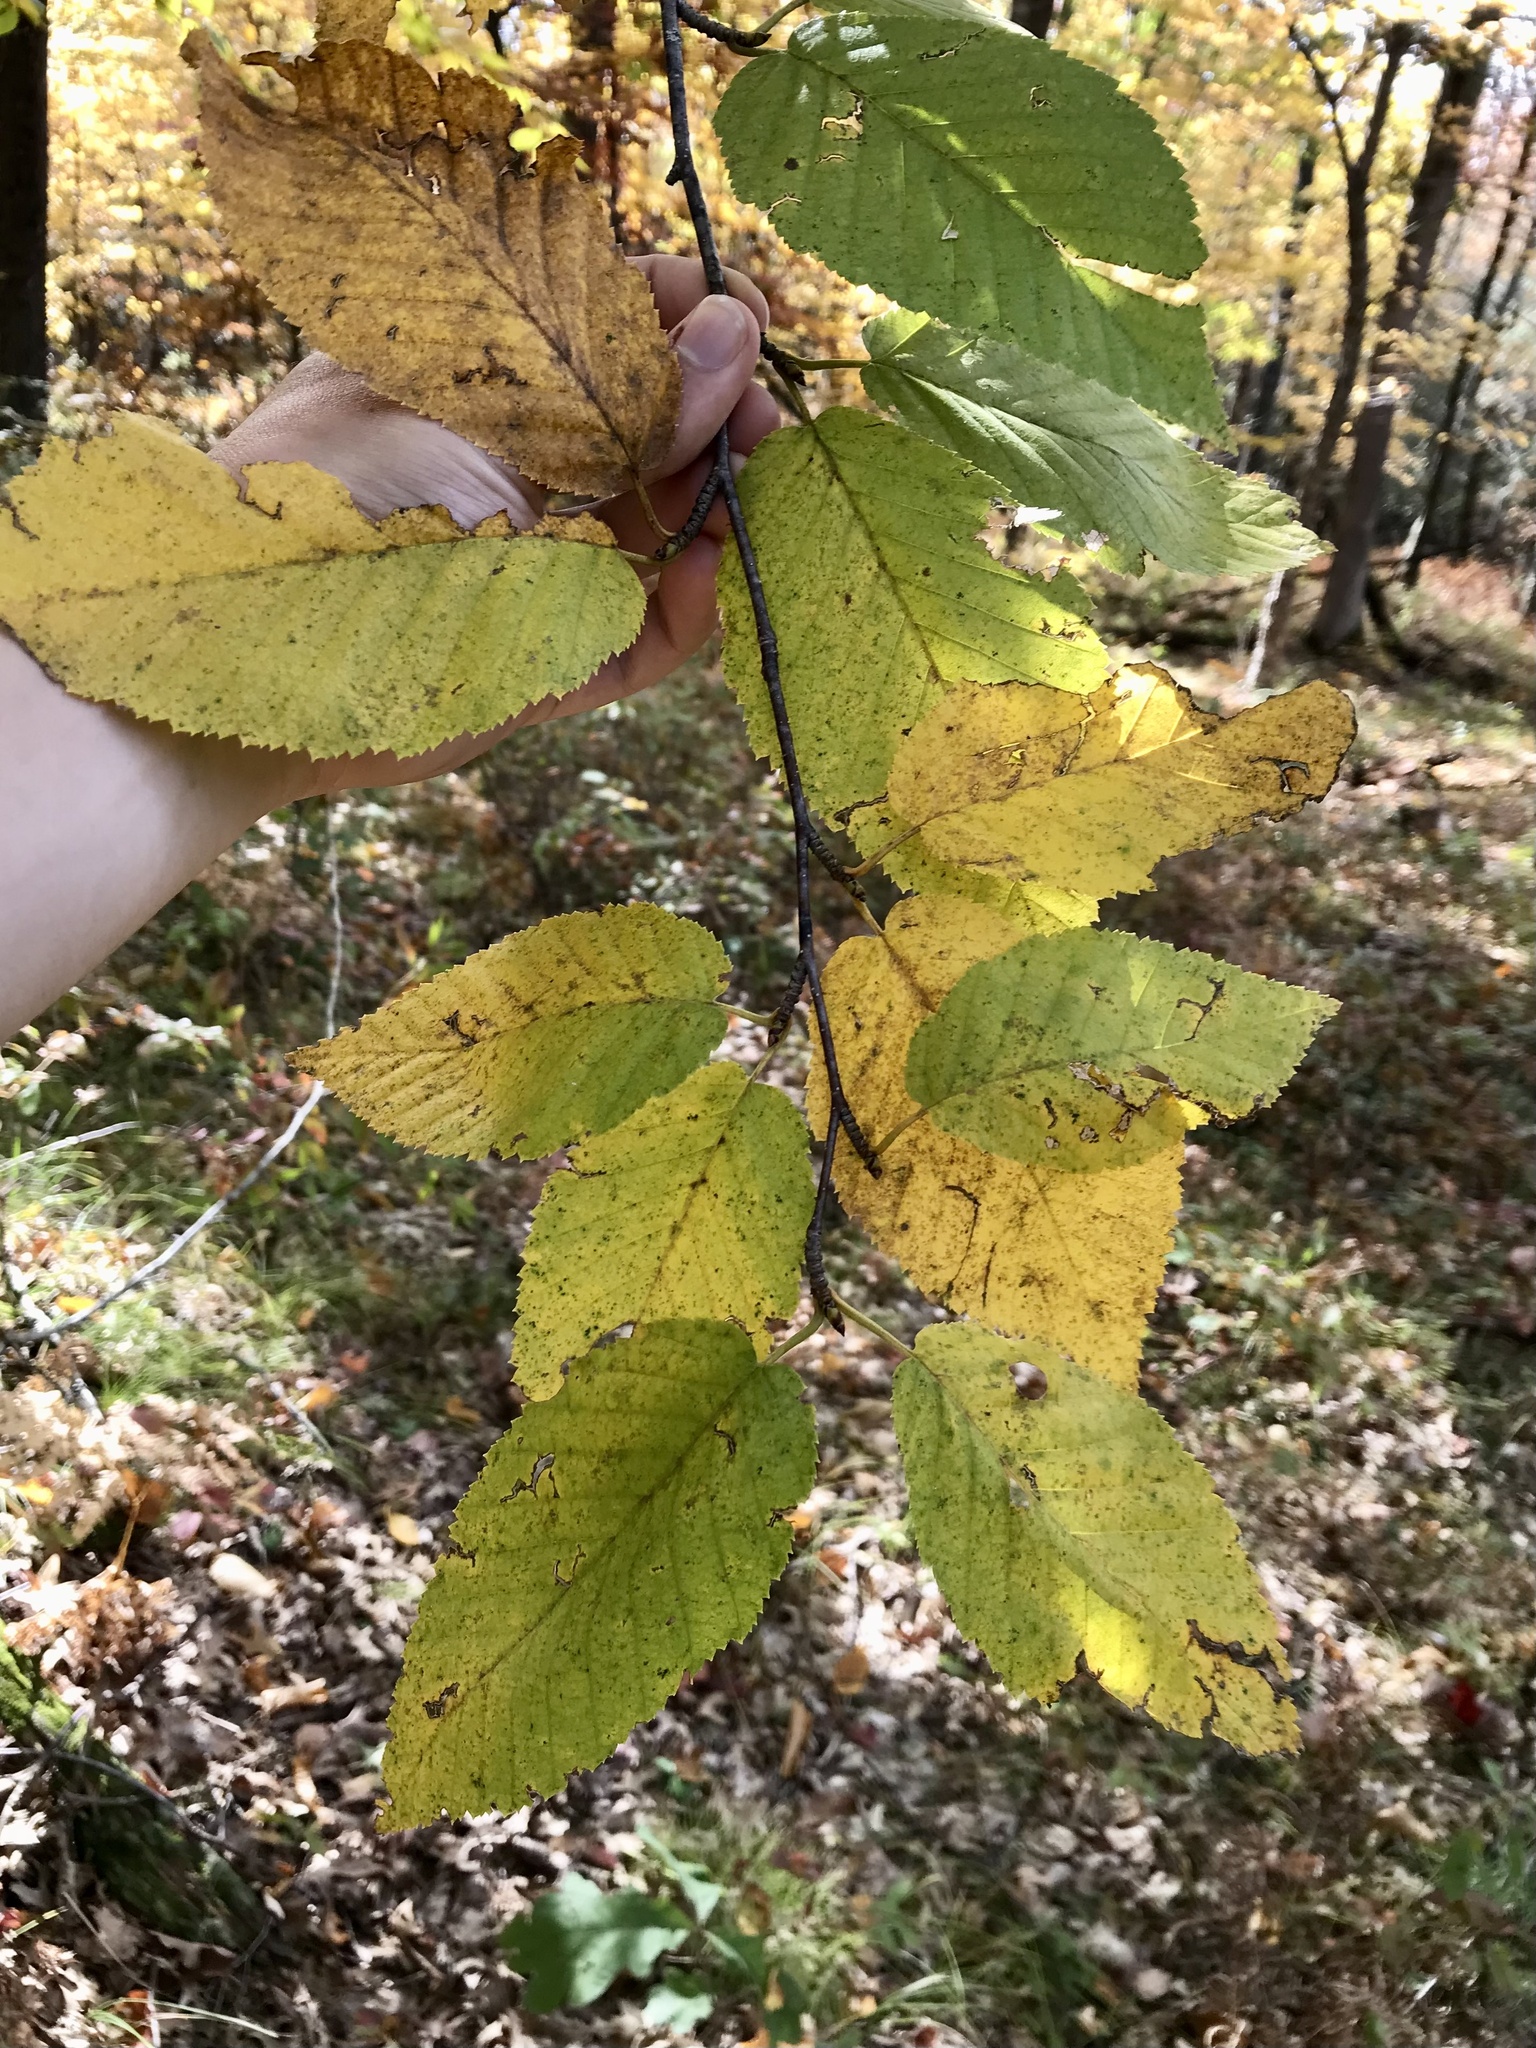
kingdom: Plantae
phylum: Tracheophyta
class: Magnoliopsida
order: Fagales
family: Betulaceae
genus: Betula
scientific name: Betula alleghaniensis
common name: Yellow birch
